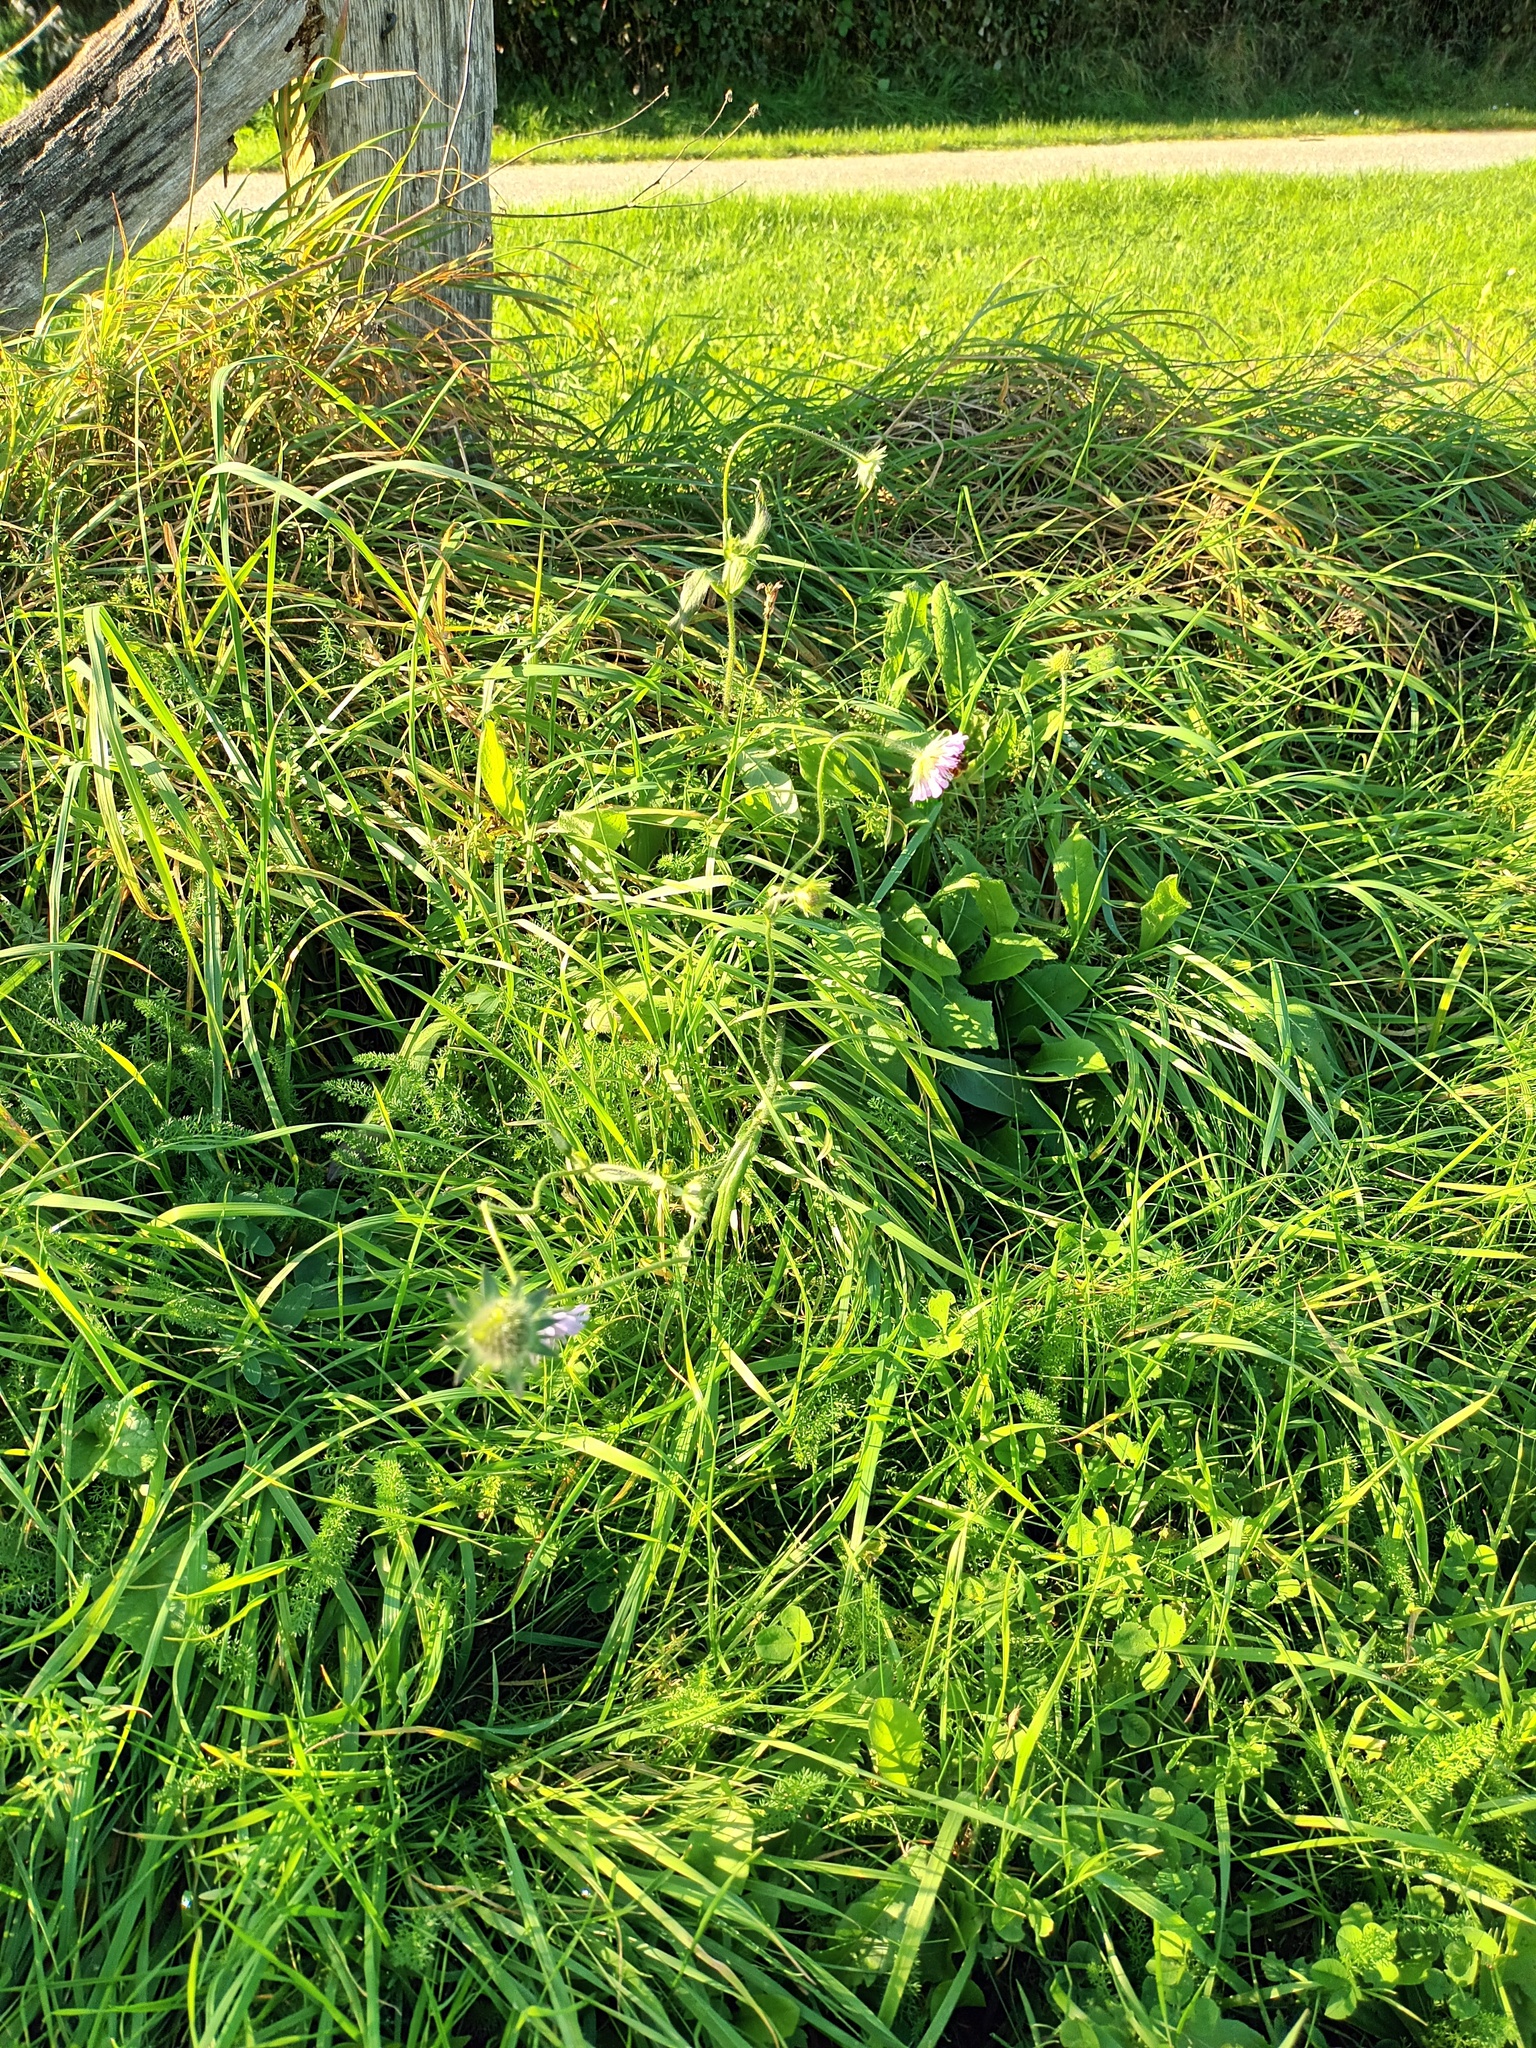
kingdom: Plantae
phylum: Tracheophyta
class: Magnoliopsida
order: Dipsacales
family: Caprifoliaceae
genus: Knautia
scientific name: Knautia arvensis
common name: Field scabiosa
